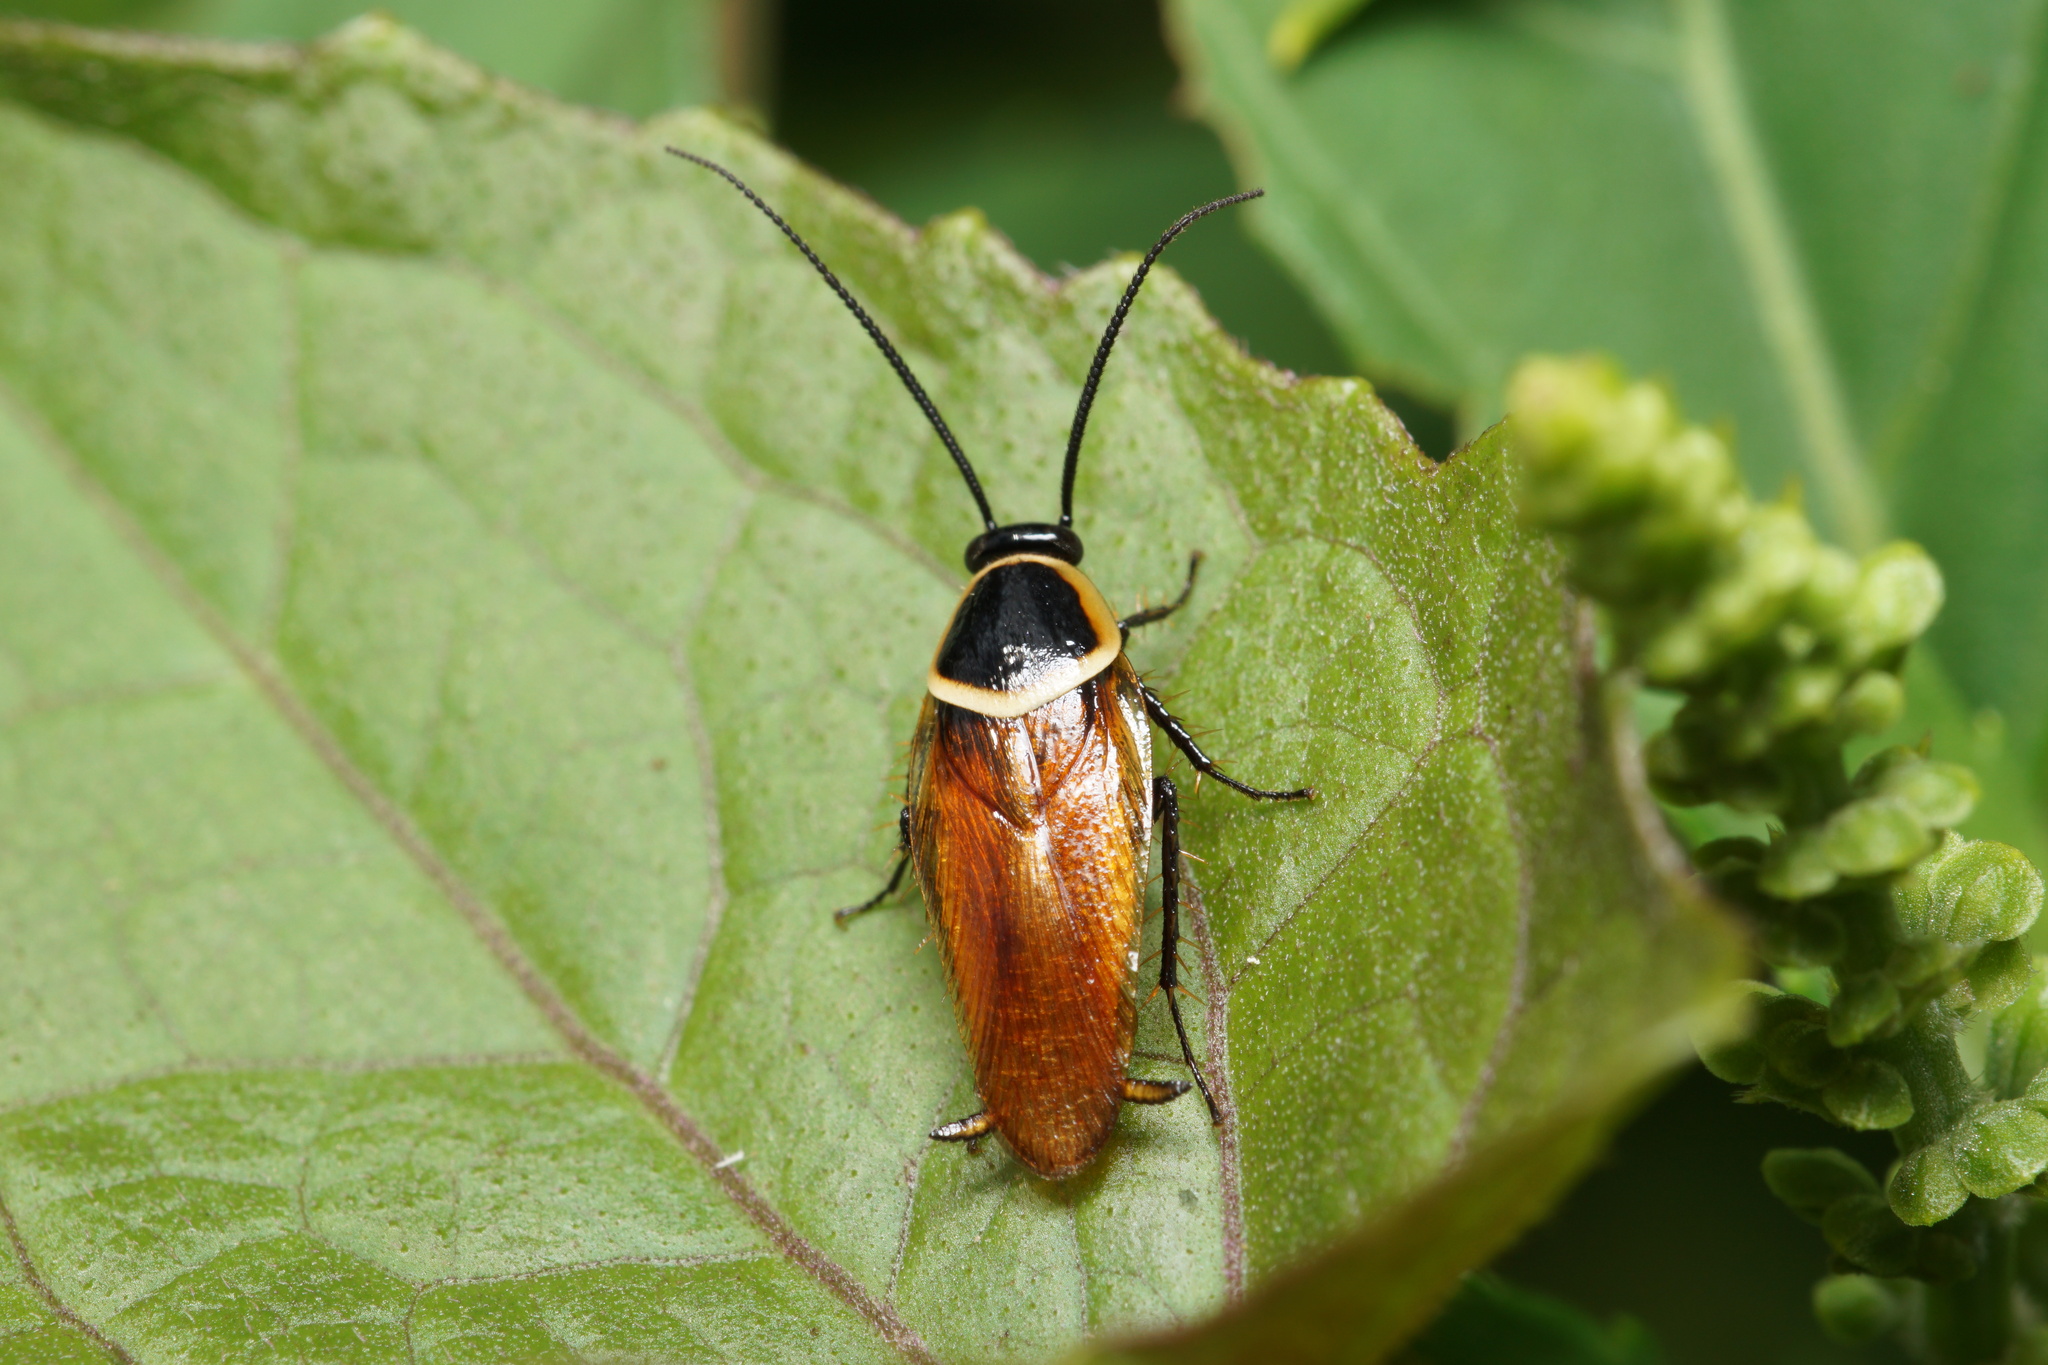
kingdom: Animalia
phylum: Arthropoda
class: Insecta
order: Blattodea
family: Ectobiidae
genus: Pseudomops
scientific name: Pseudomops neglectus
